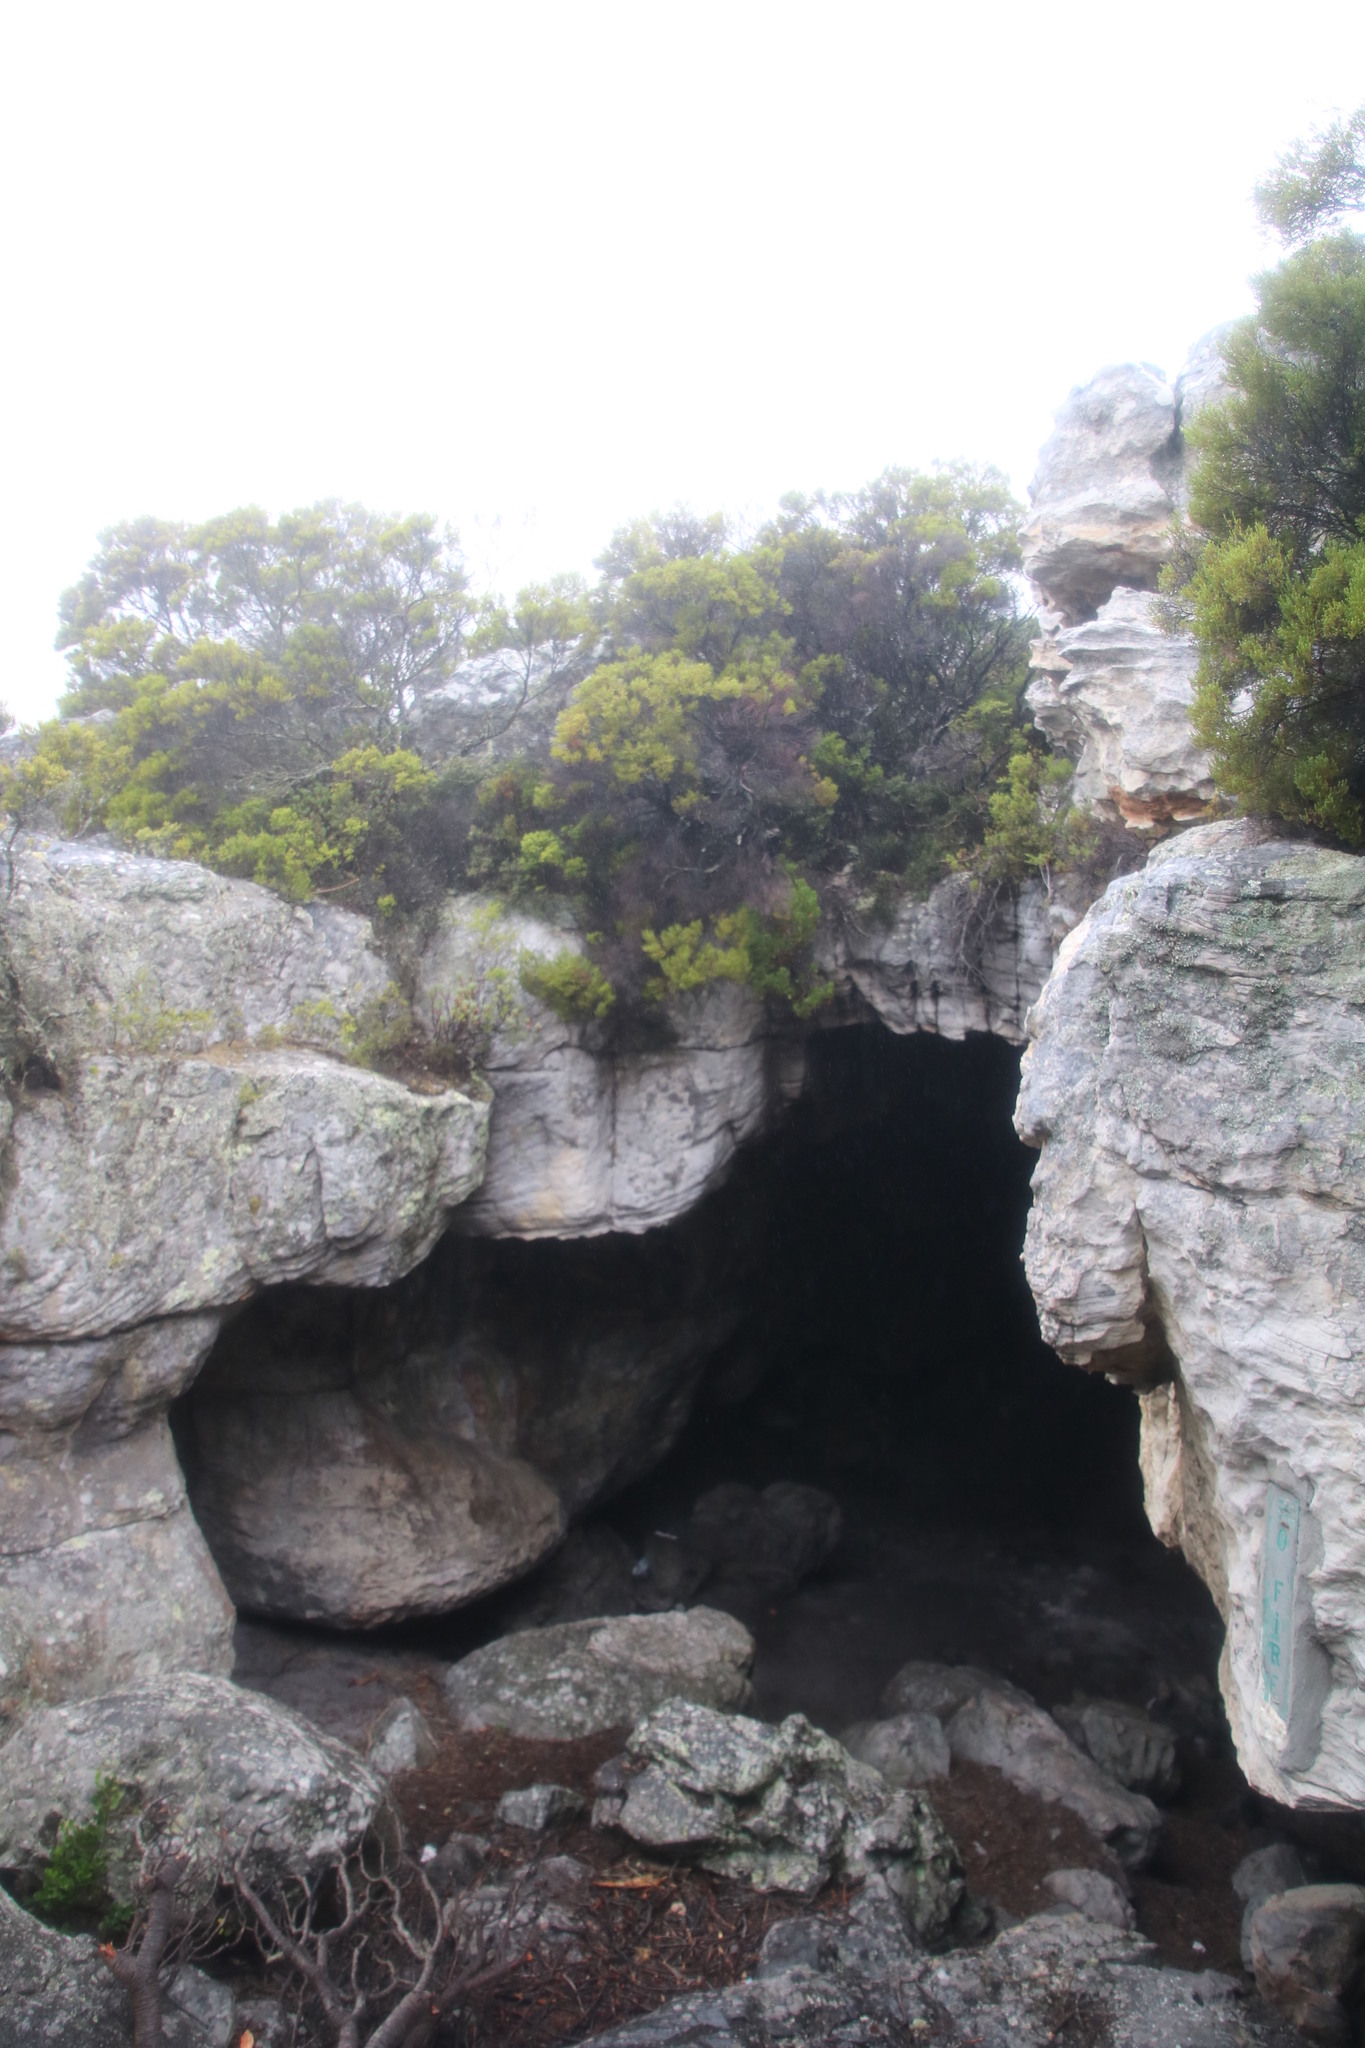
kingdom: Plantae
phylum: Tracheophyta
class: Magnoliopsida
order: Sapindales
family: Rutaceae
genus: Coleonema
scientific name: Coleonema album
